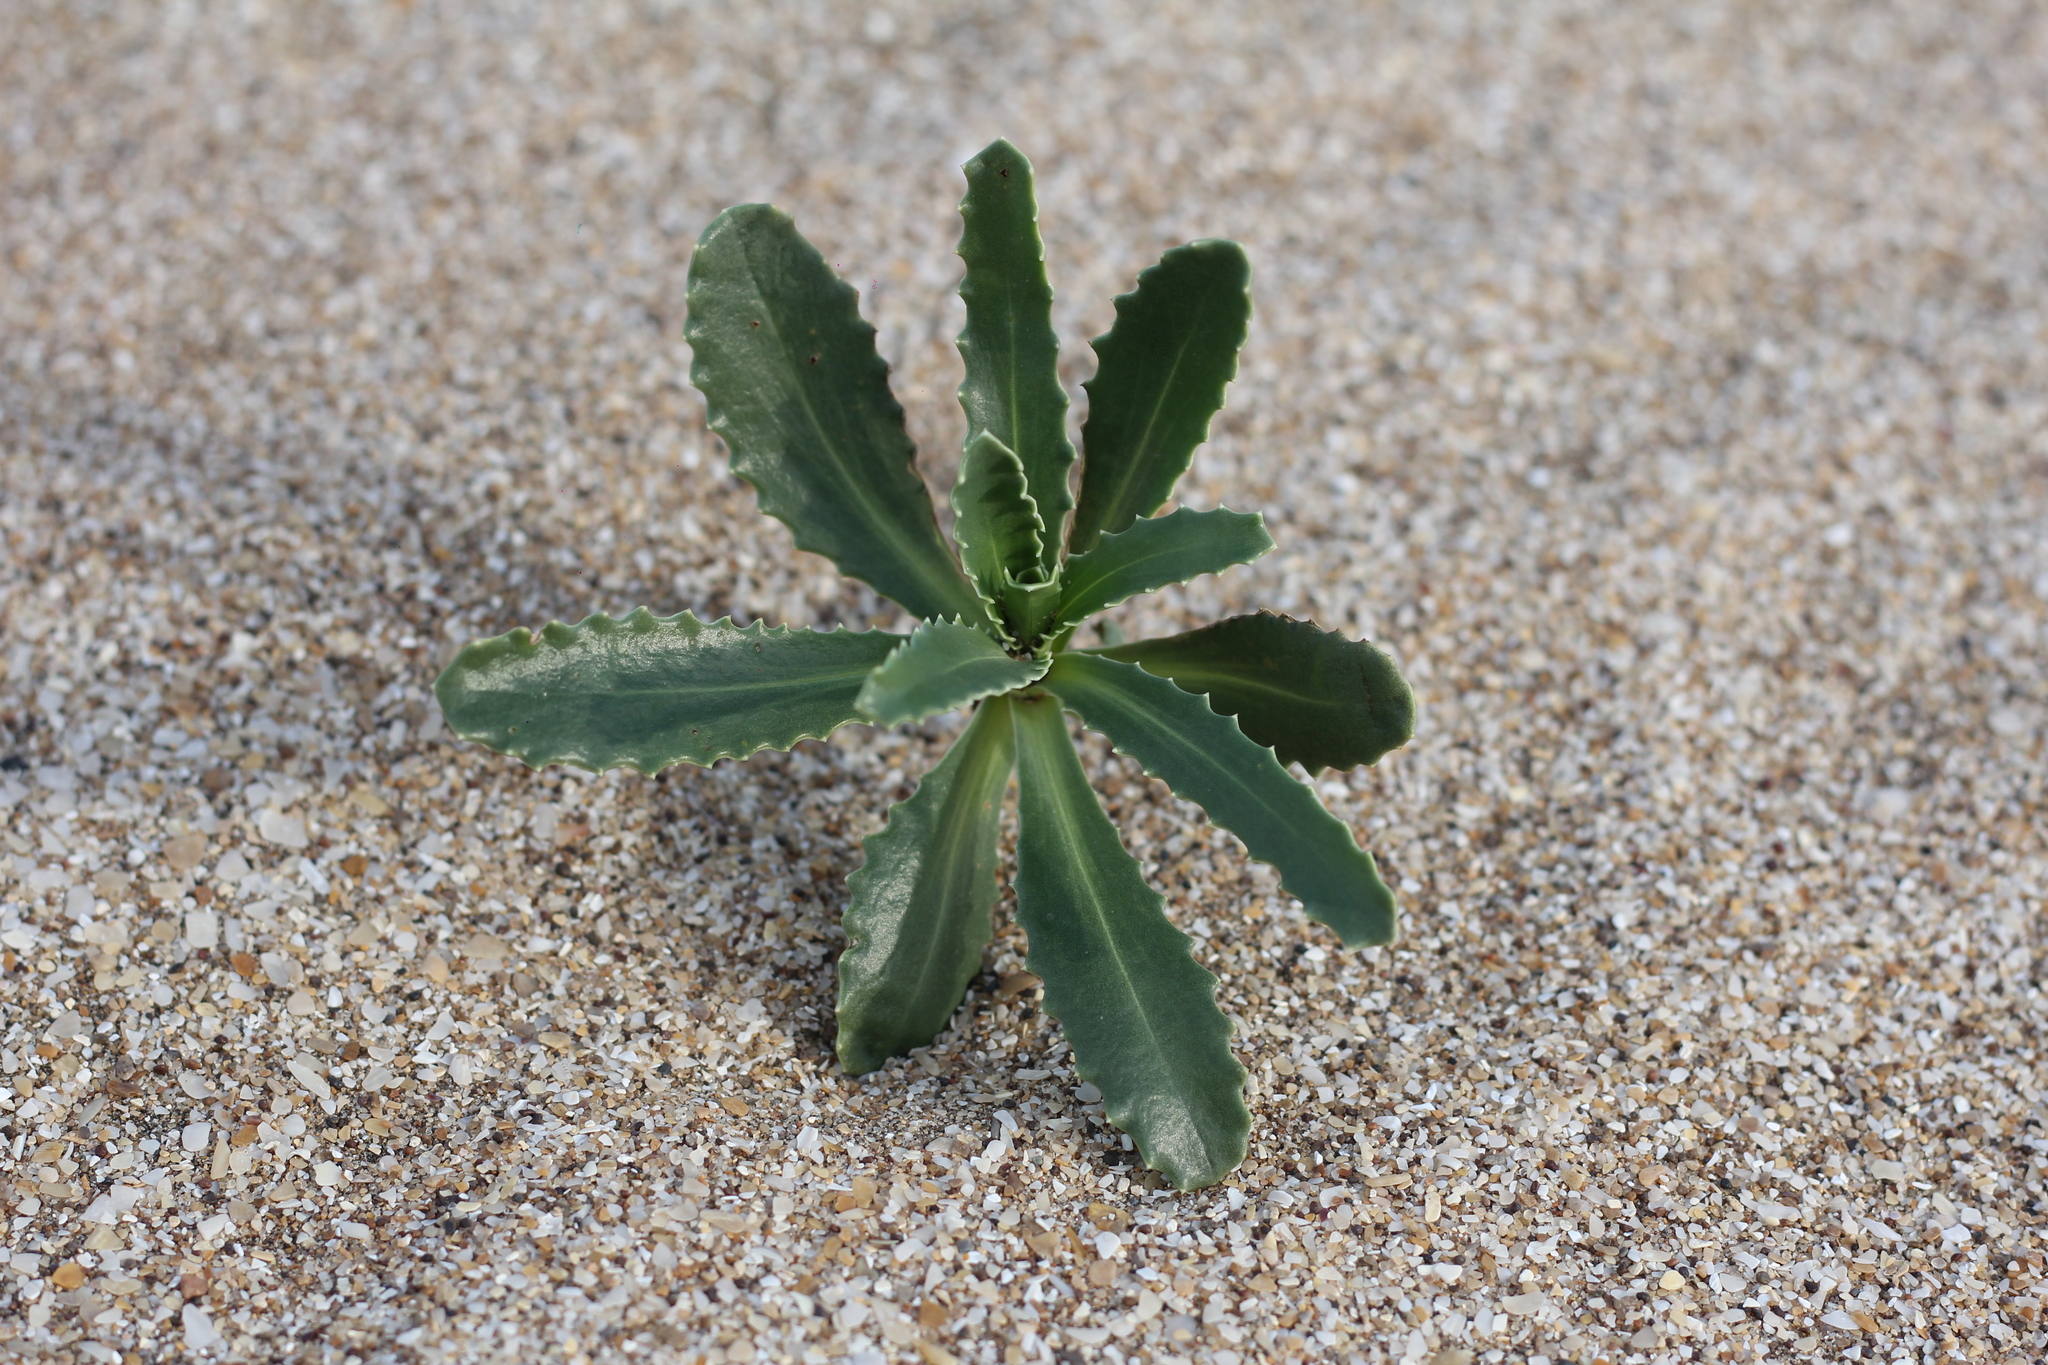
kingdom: Plantae
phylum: Tracheophyta
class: Magnoliopsida
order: Asterales
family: Calyceraceae
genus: Calycera
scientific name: Calycera crassifolia
